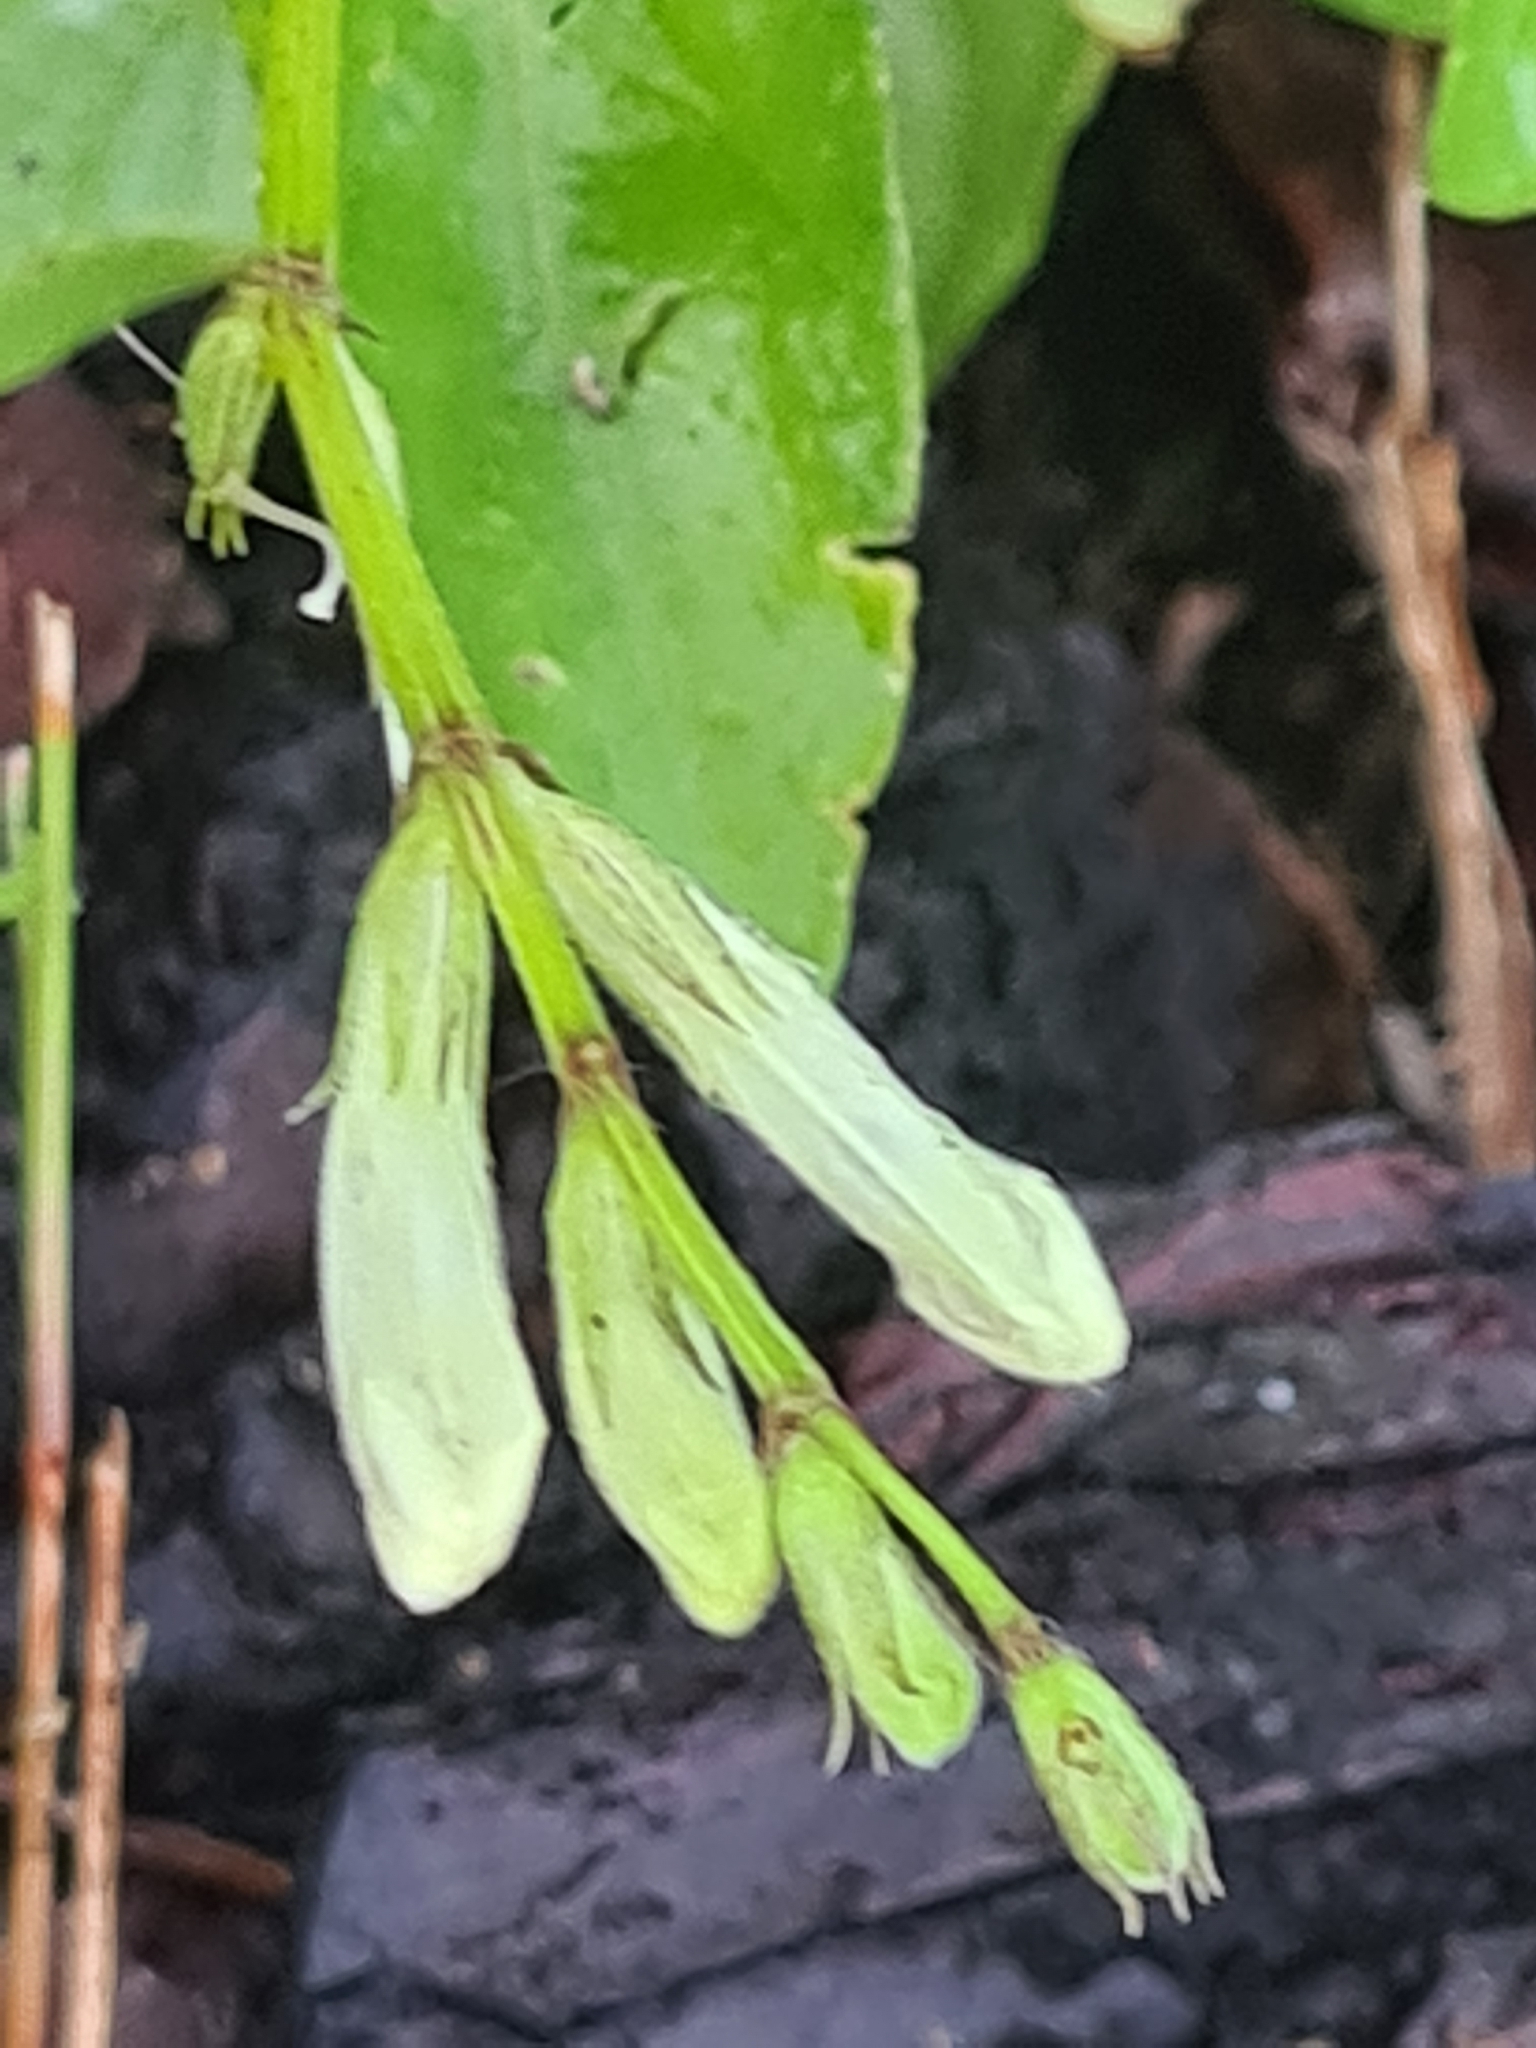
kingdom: Plantae
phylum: Tracheophyta
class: Magnoliopsida
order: Lamiales
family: Acanthaceae
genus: Asystasia
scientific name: Asystasia intrusa
